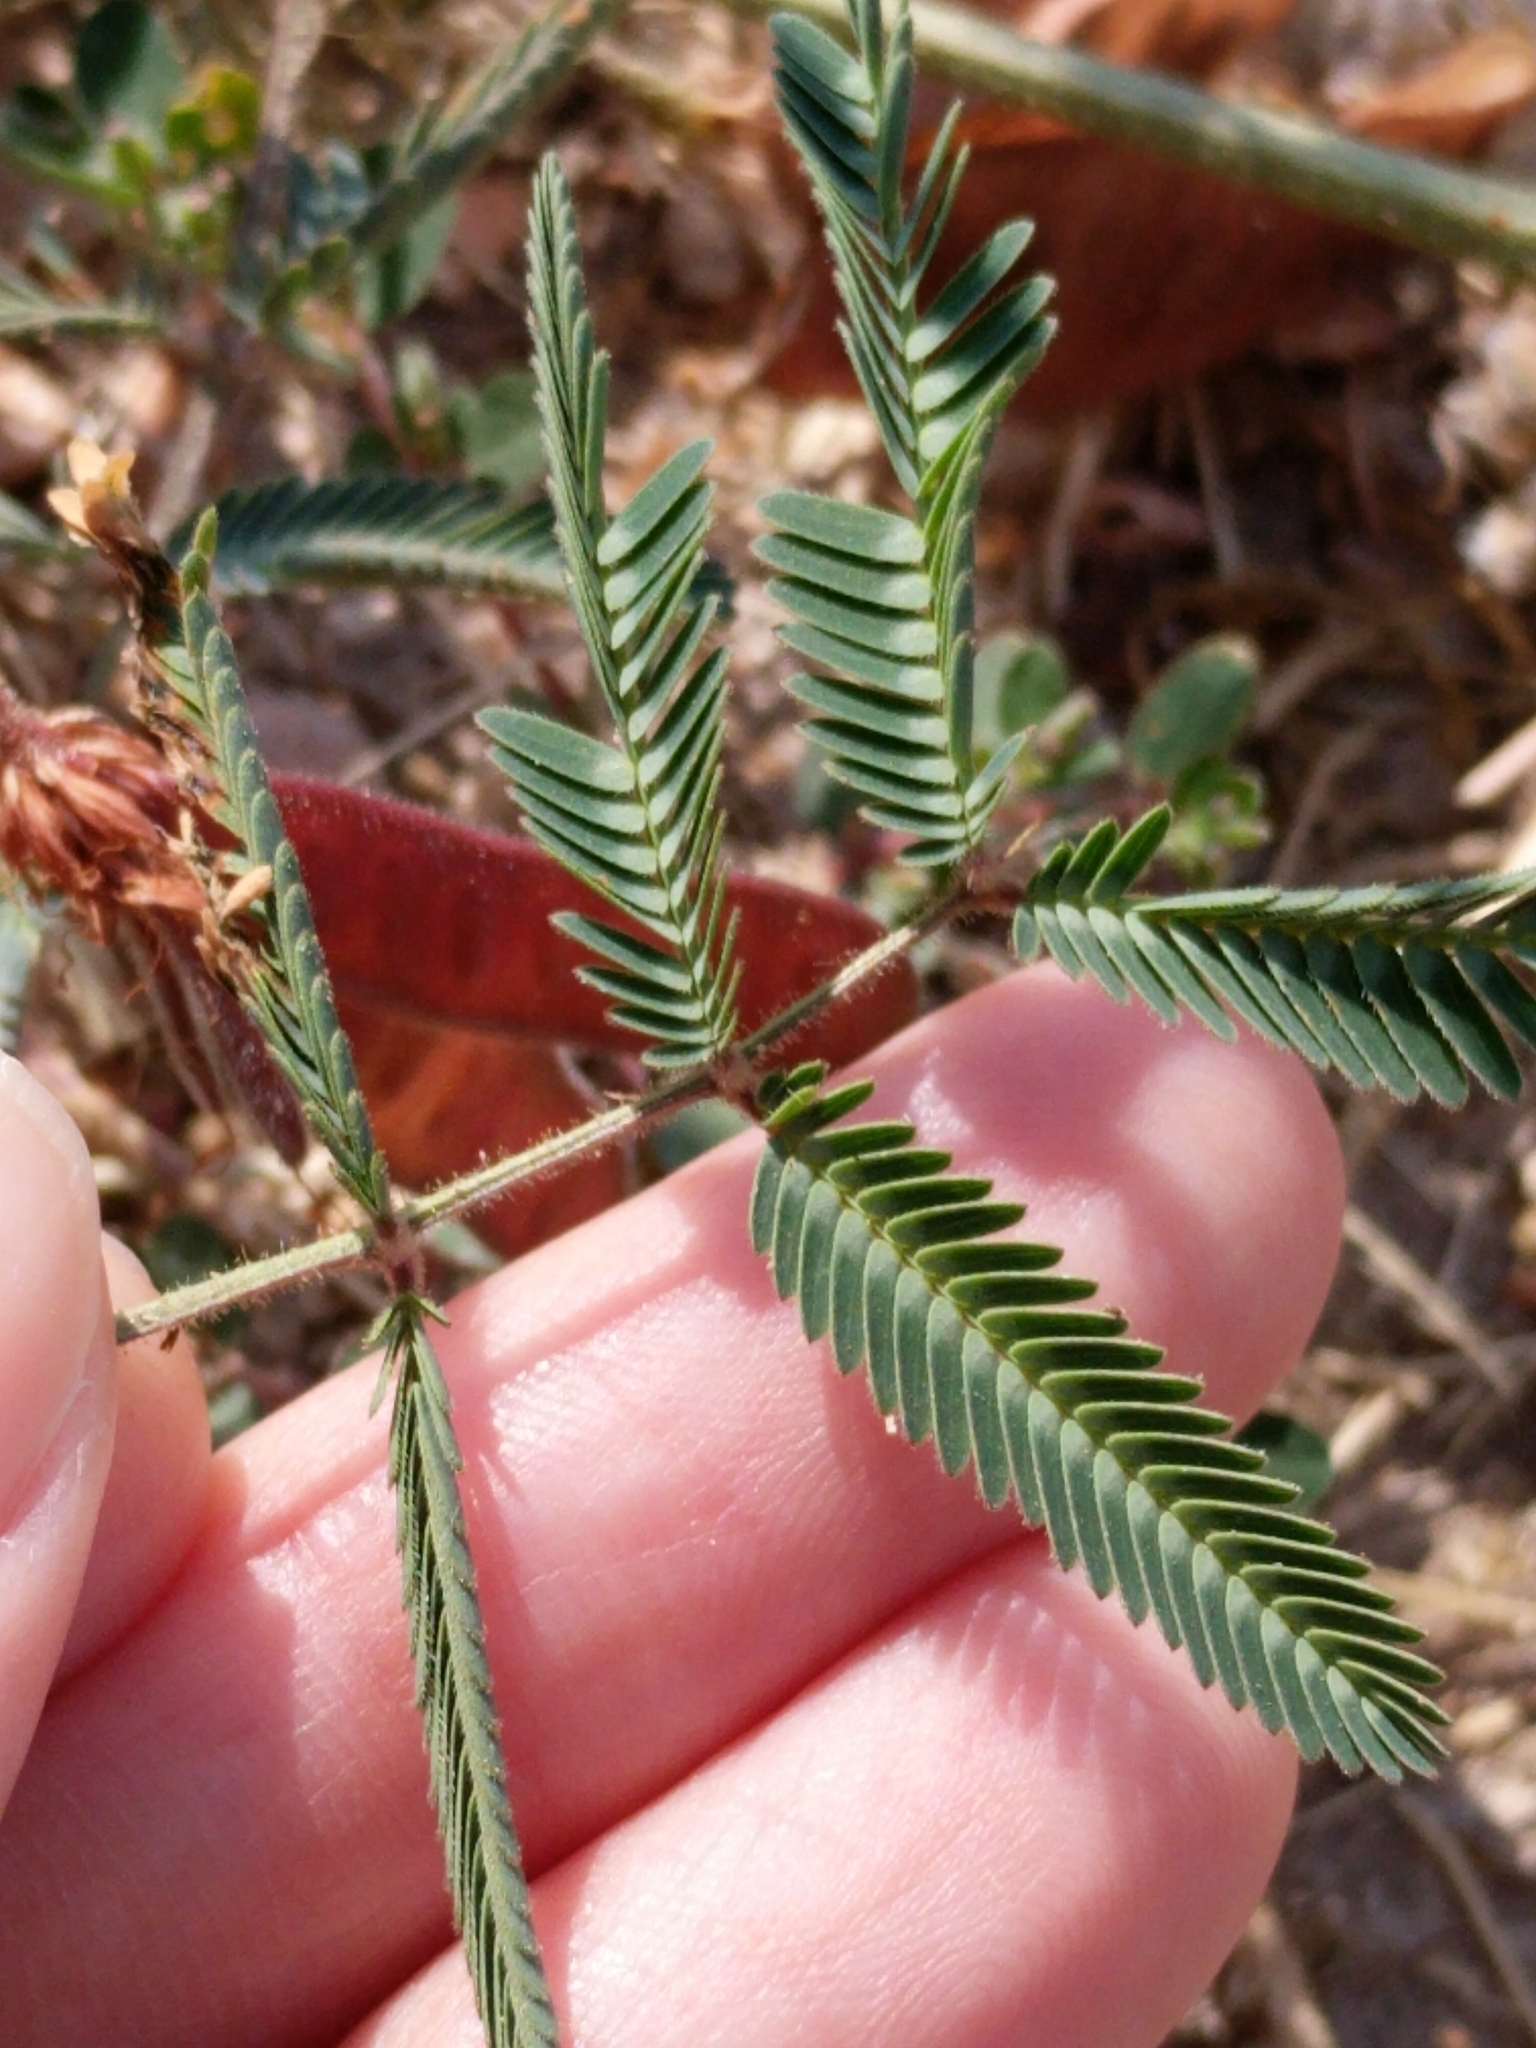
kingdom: Plantae
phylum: Tracheophyta
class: Magnoliopsida
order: Fabales
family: Fabaceae
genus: Neptunia
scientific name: Neptunia pubescens
